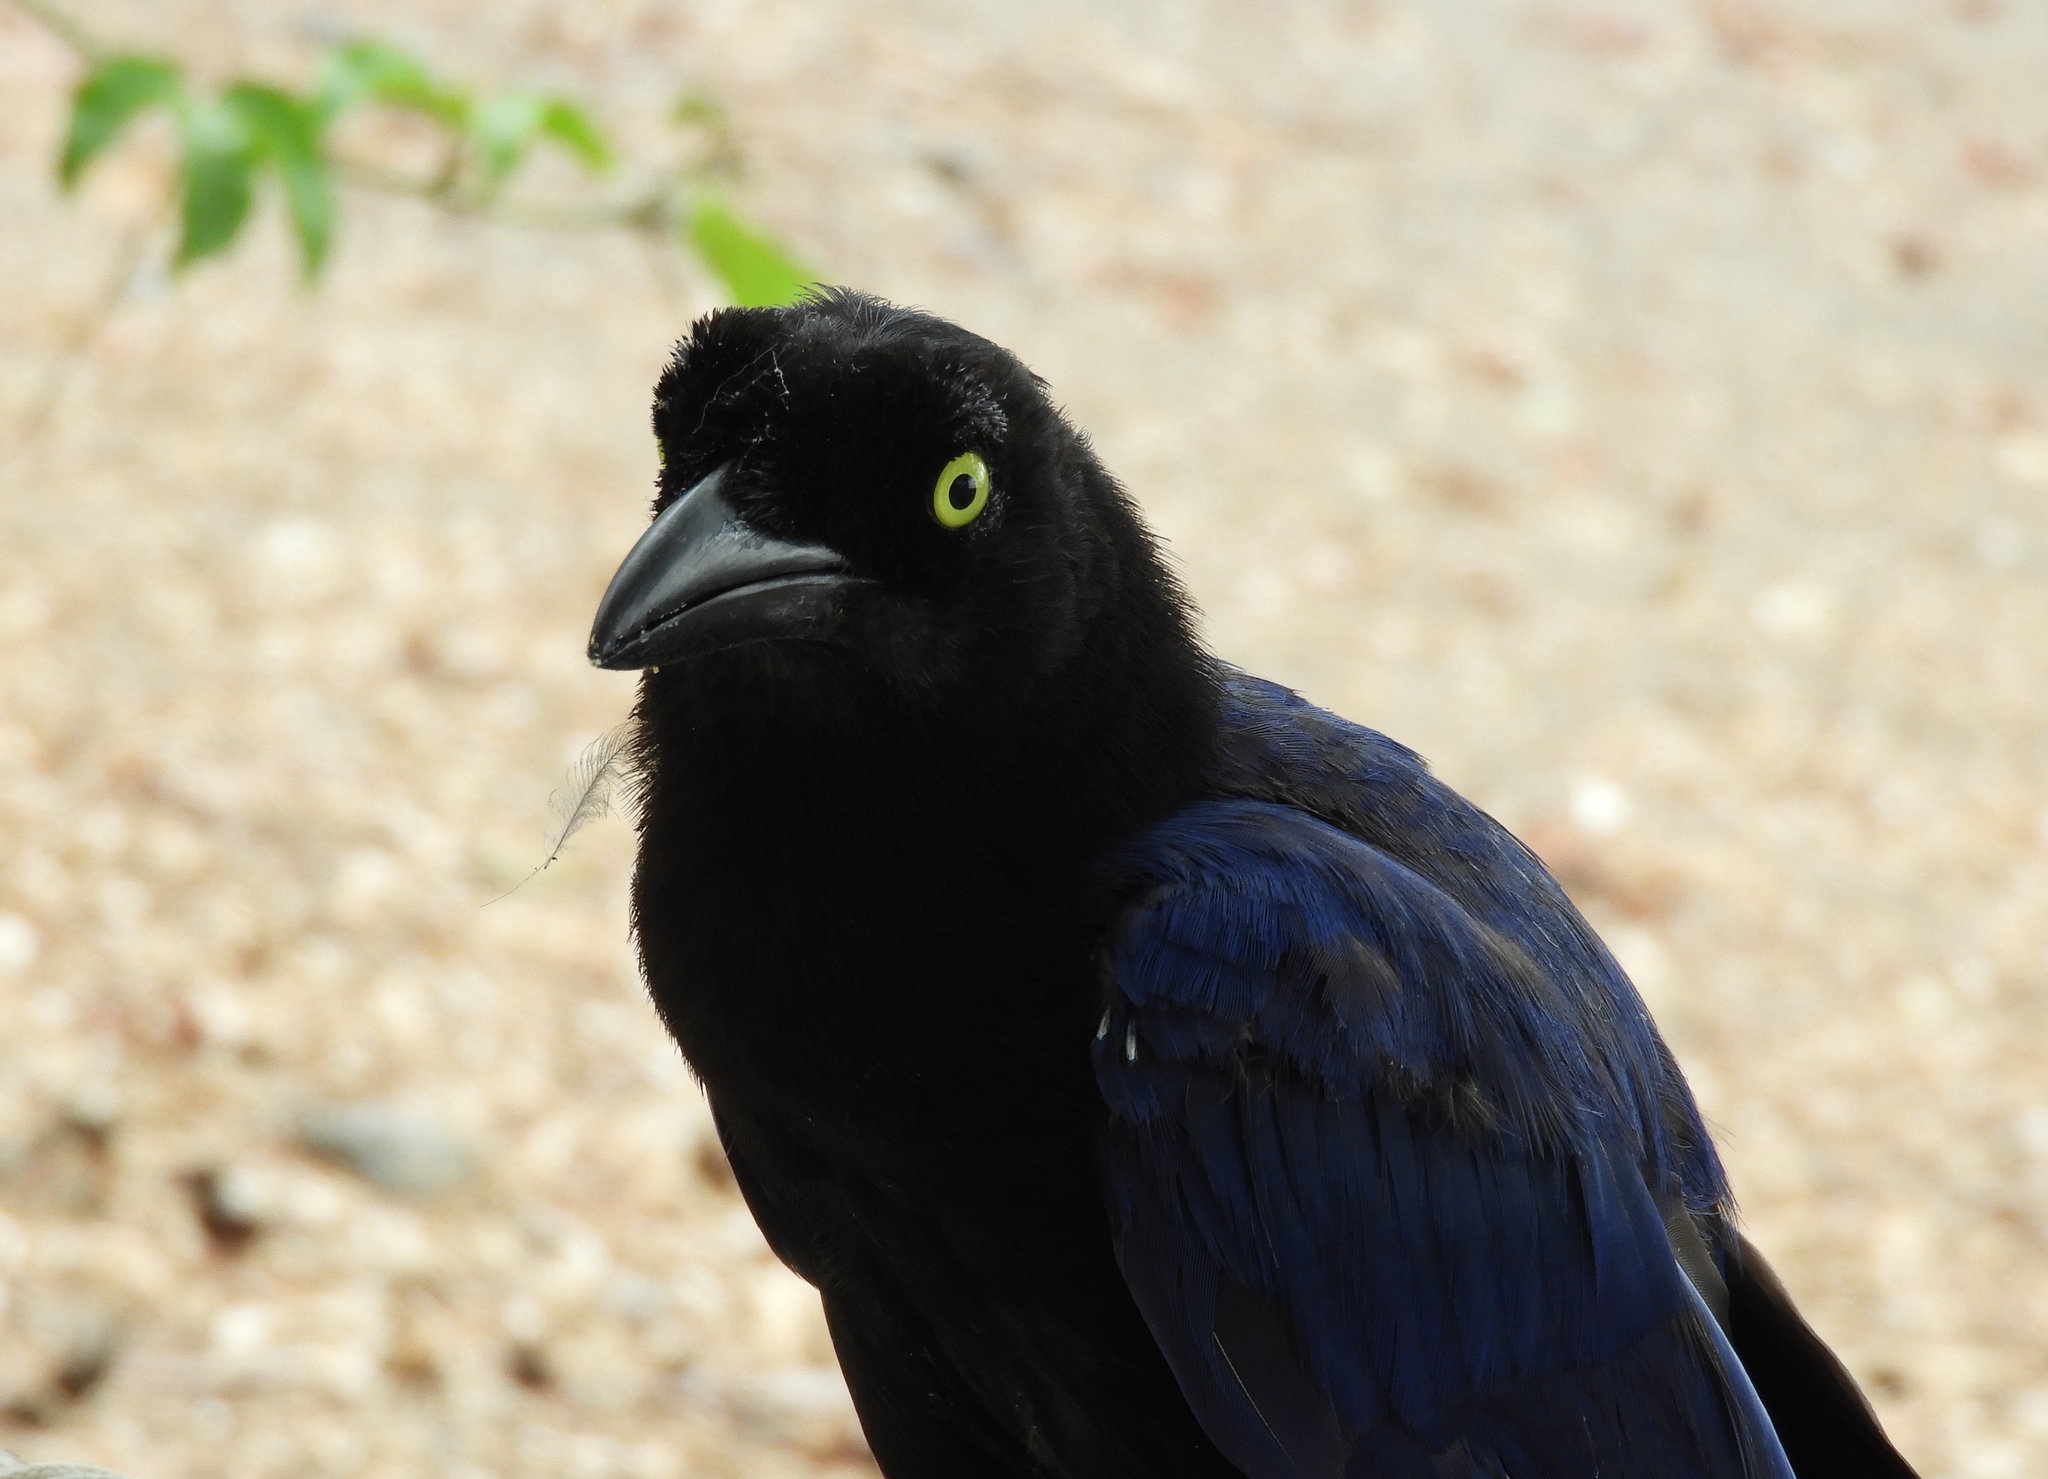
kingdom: Animalia
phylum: Chordata
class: Aves
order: Passeriformes
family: Corvidae
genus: Cyanocorax
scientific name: Cyanocorax beecheii
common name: Purplish-backed jay
